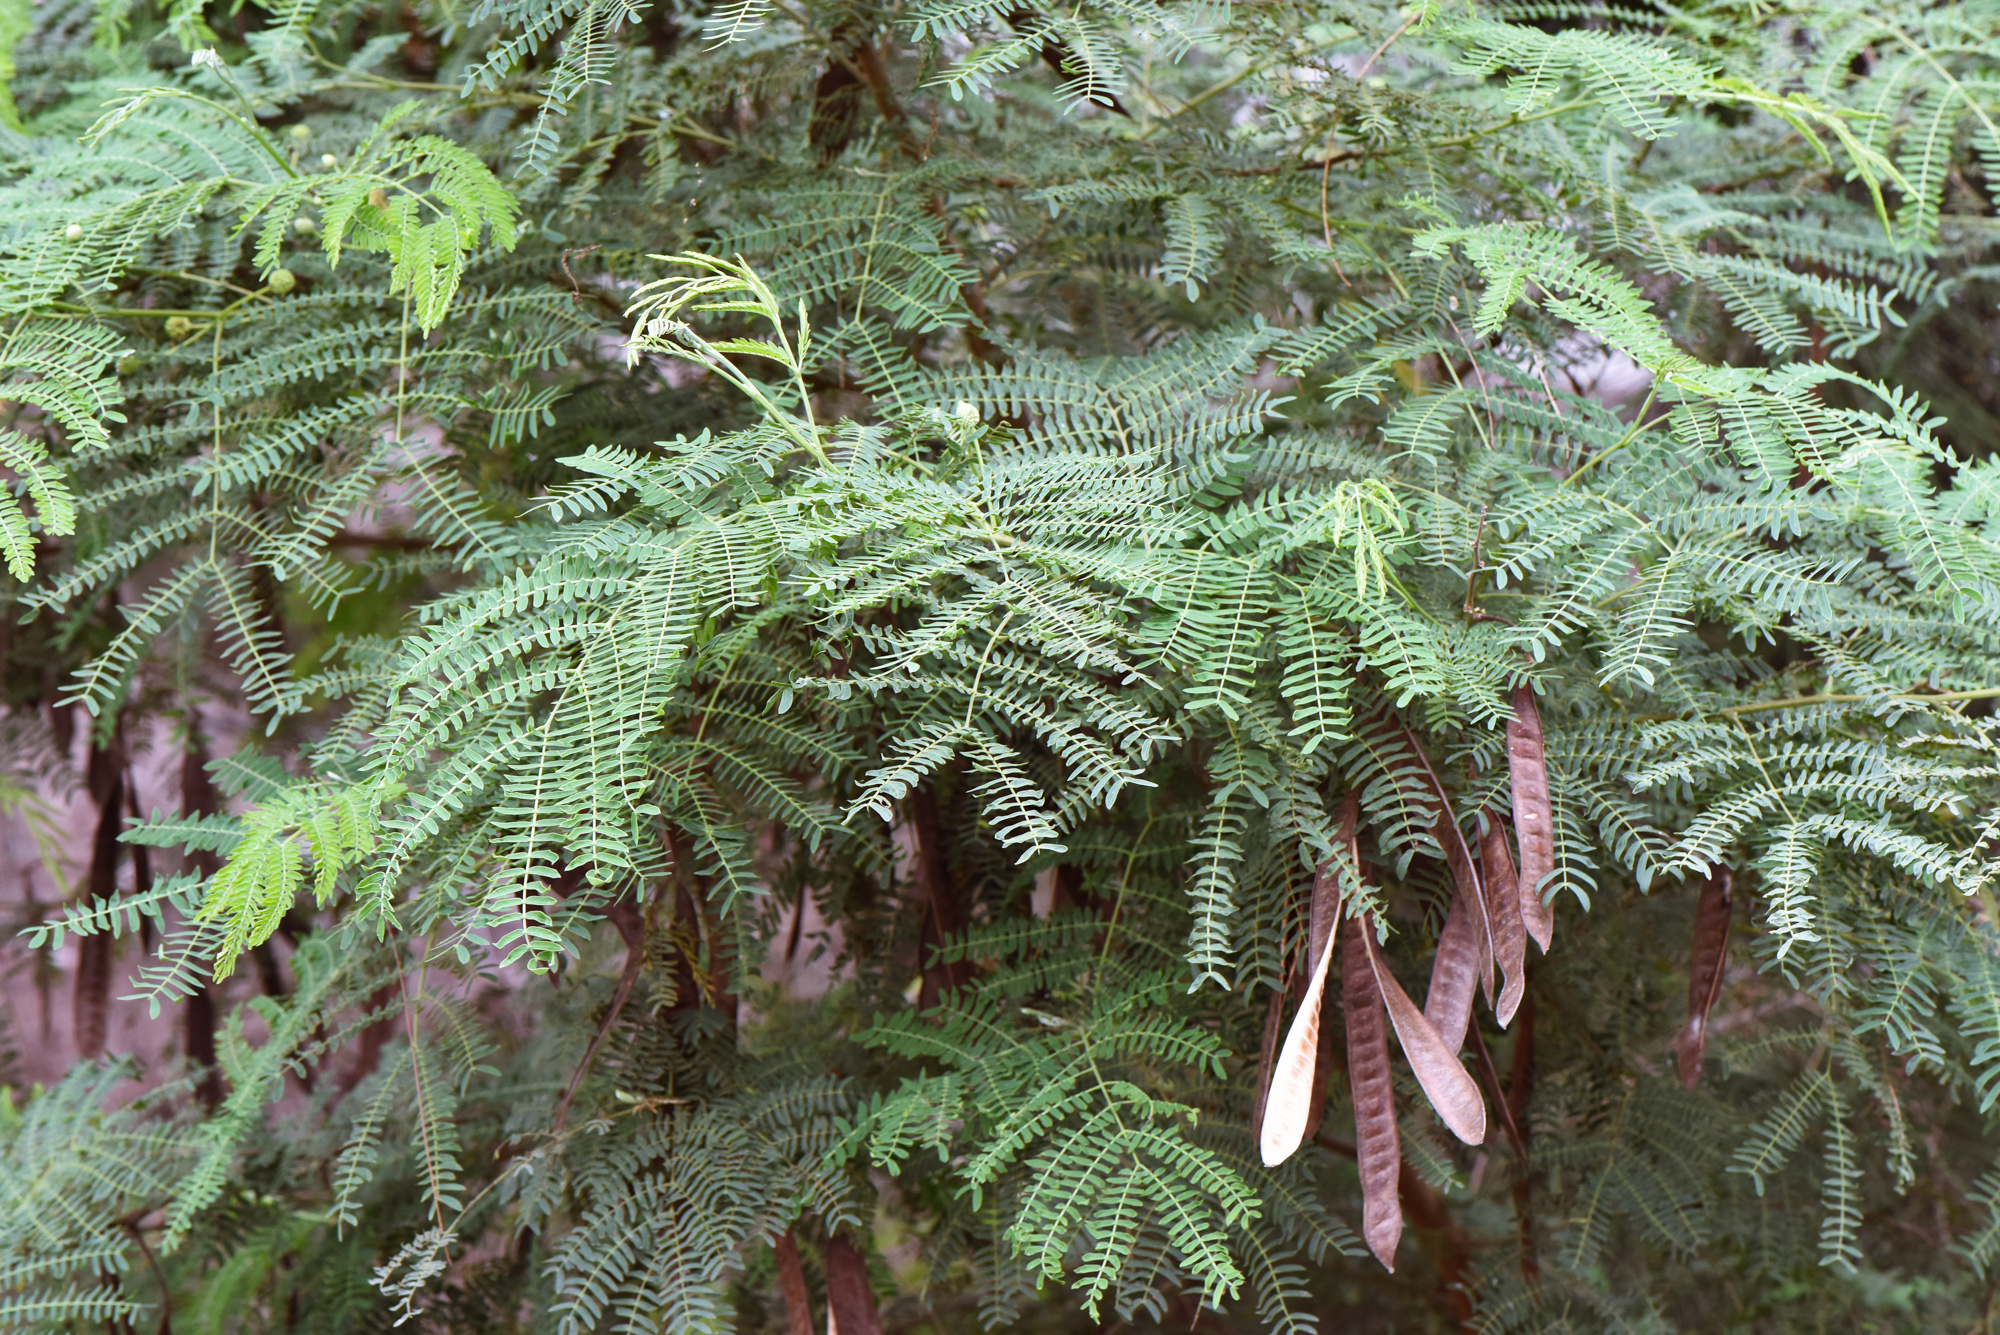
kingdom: Plantae
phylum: Tracheophyta
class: Magnoliopsida
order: Fabales
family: Fabaceae
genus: Leucaena
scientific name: Leucaena leucocephala
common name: White leadtree
